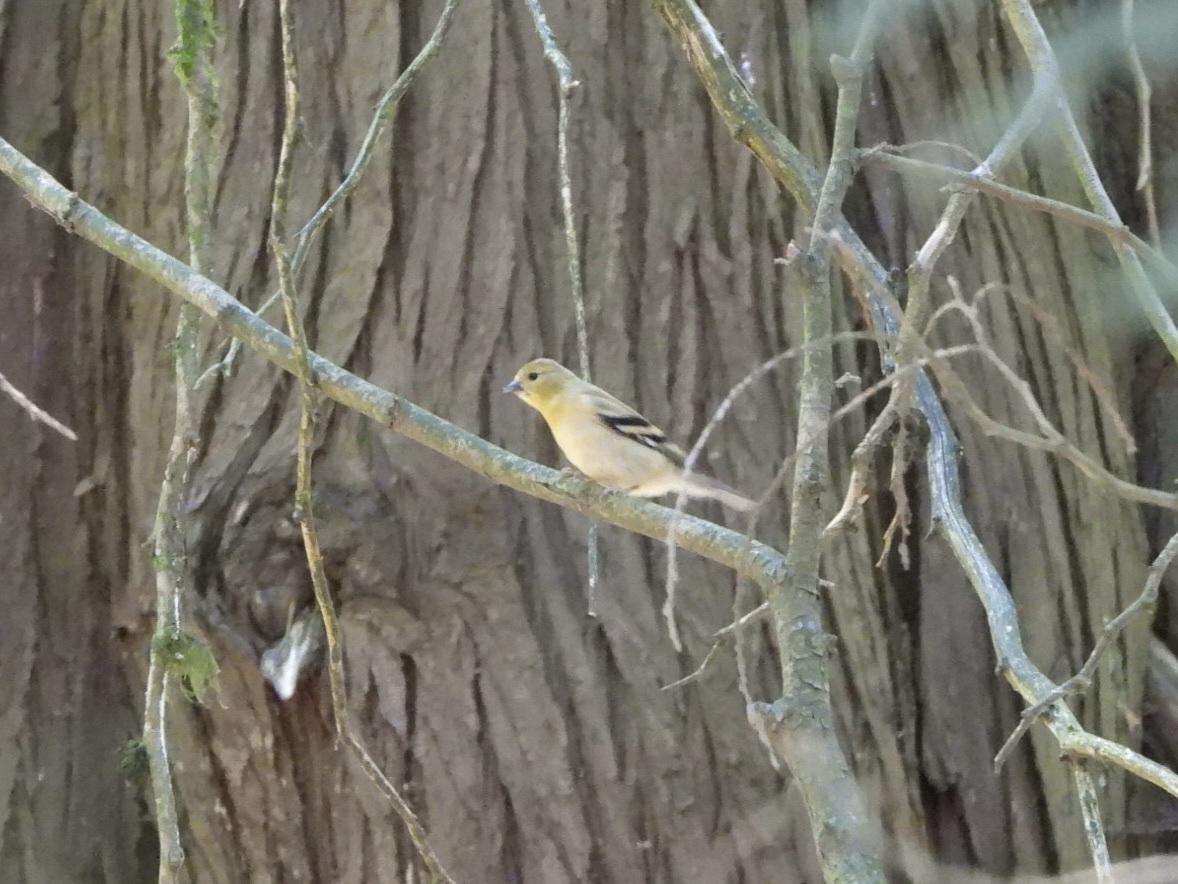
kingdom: Animalia
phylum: Chordata
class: Aves
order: Passeriformes
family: Fringillidae
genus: Spinus
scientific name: Spinus tristis
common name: American goldfinch
